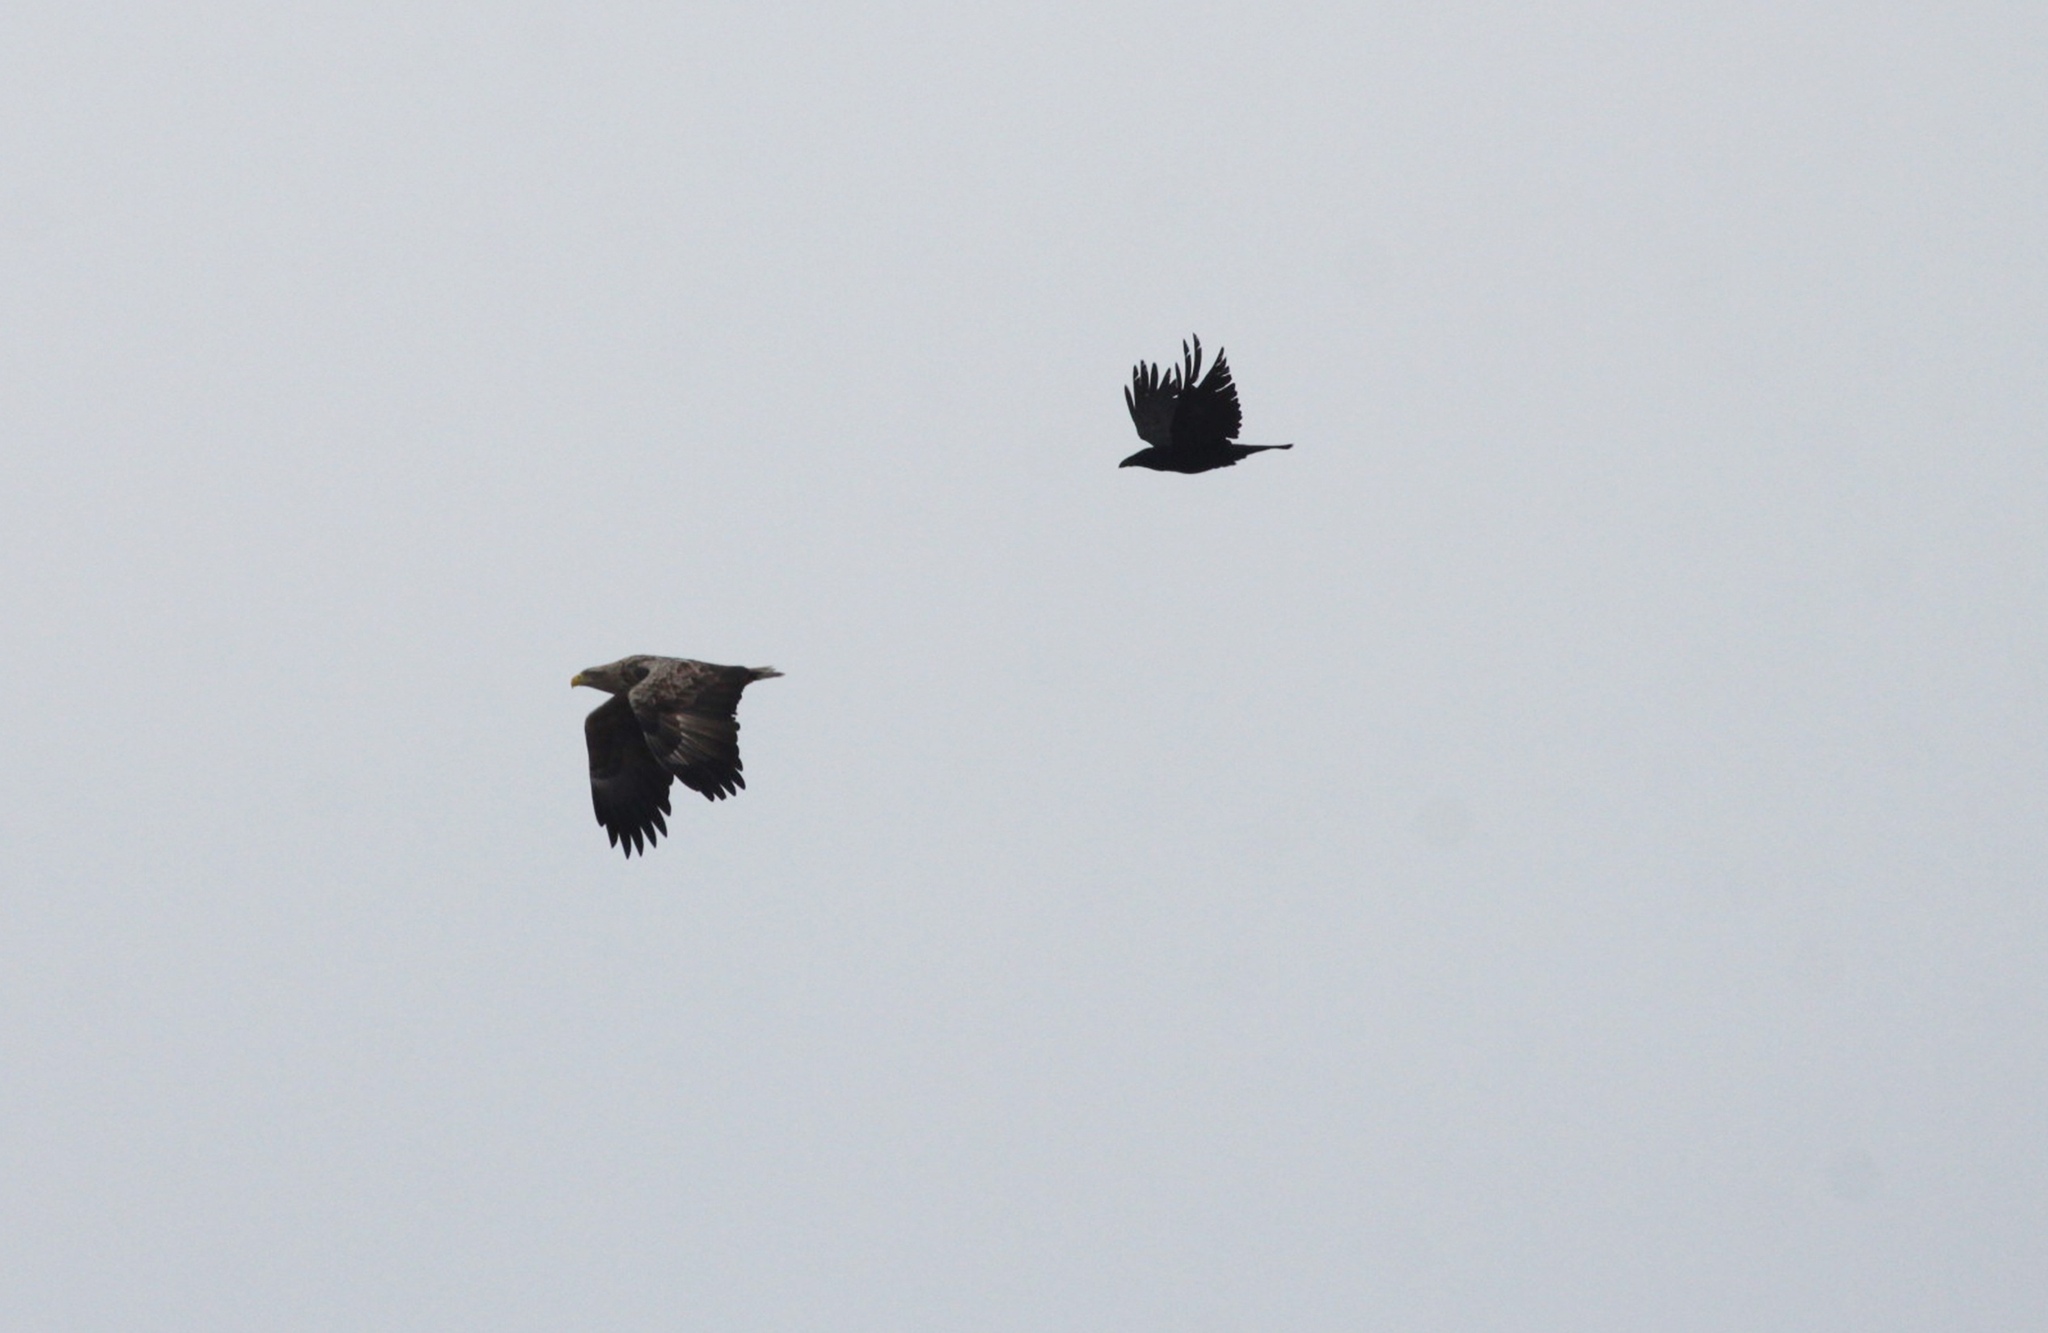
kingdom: Animalia
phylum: Chordata
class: Aves
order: Accipitriformes
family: Accipitridae
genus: Haliaeetus
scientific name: Haliaeetus albicilla
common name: White-tailed eagle
